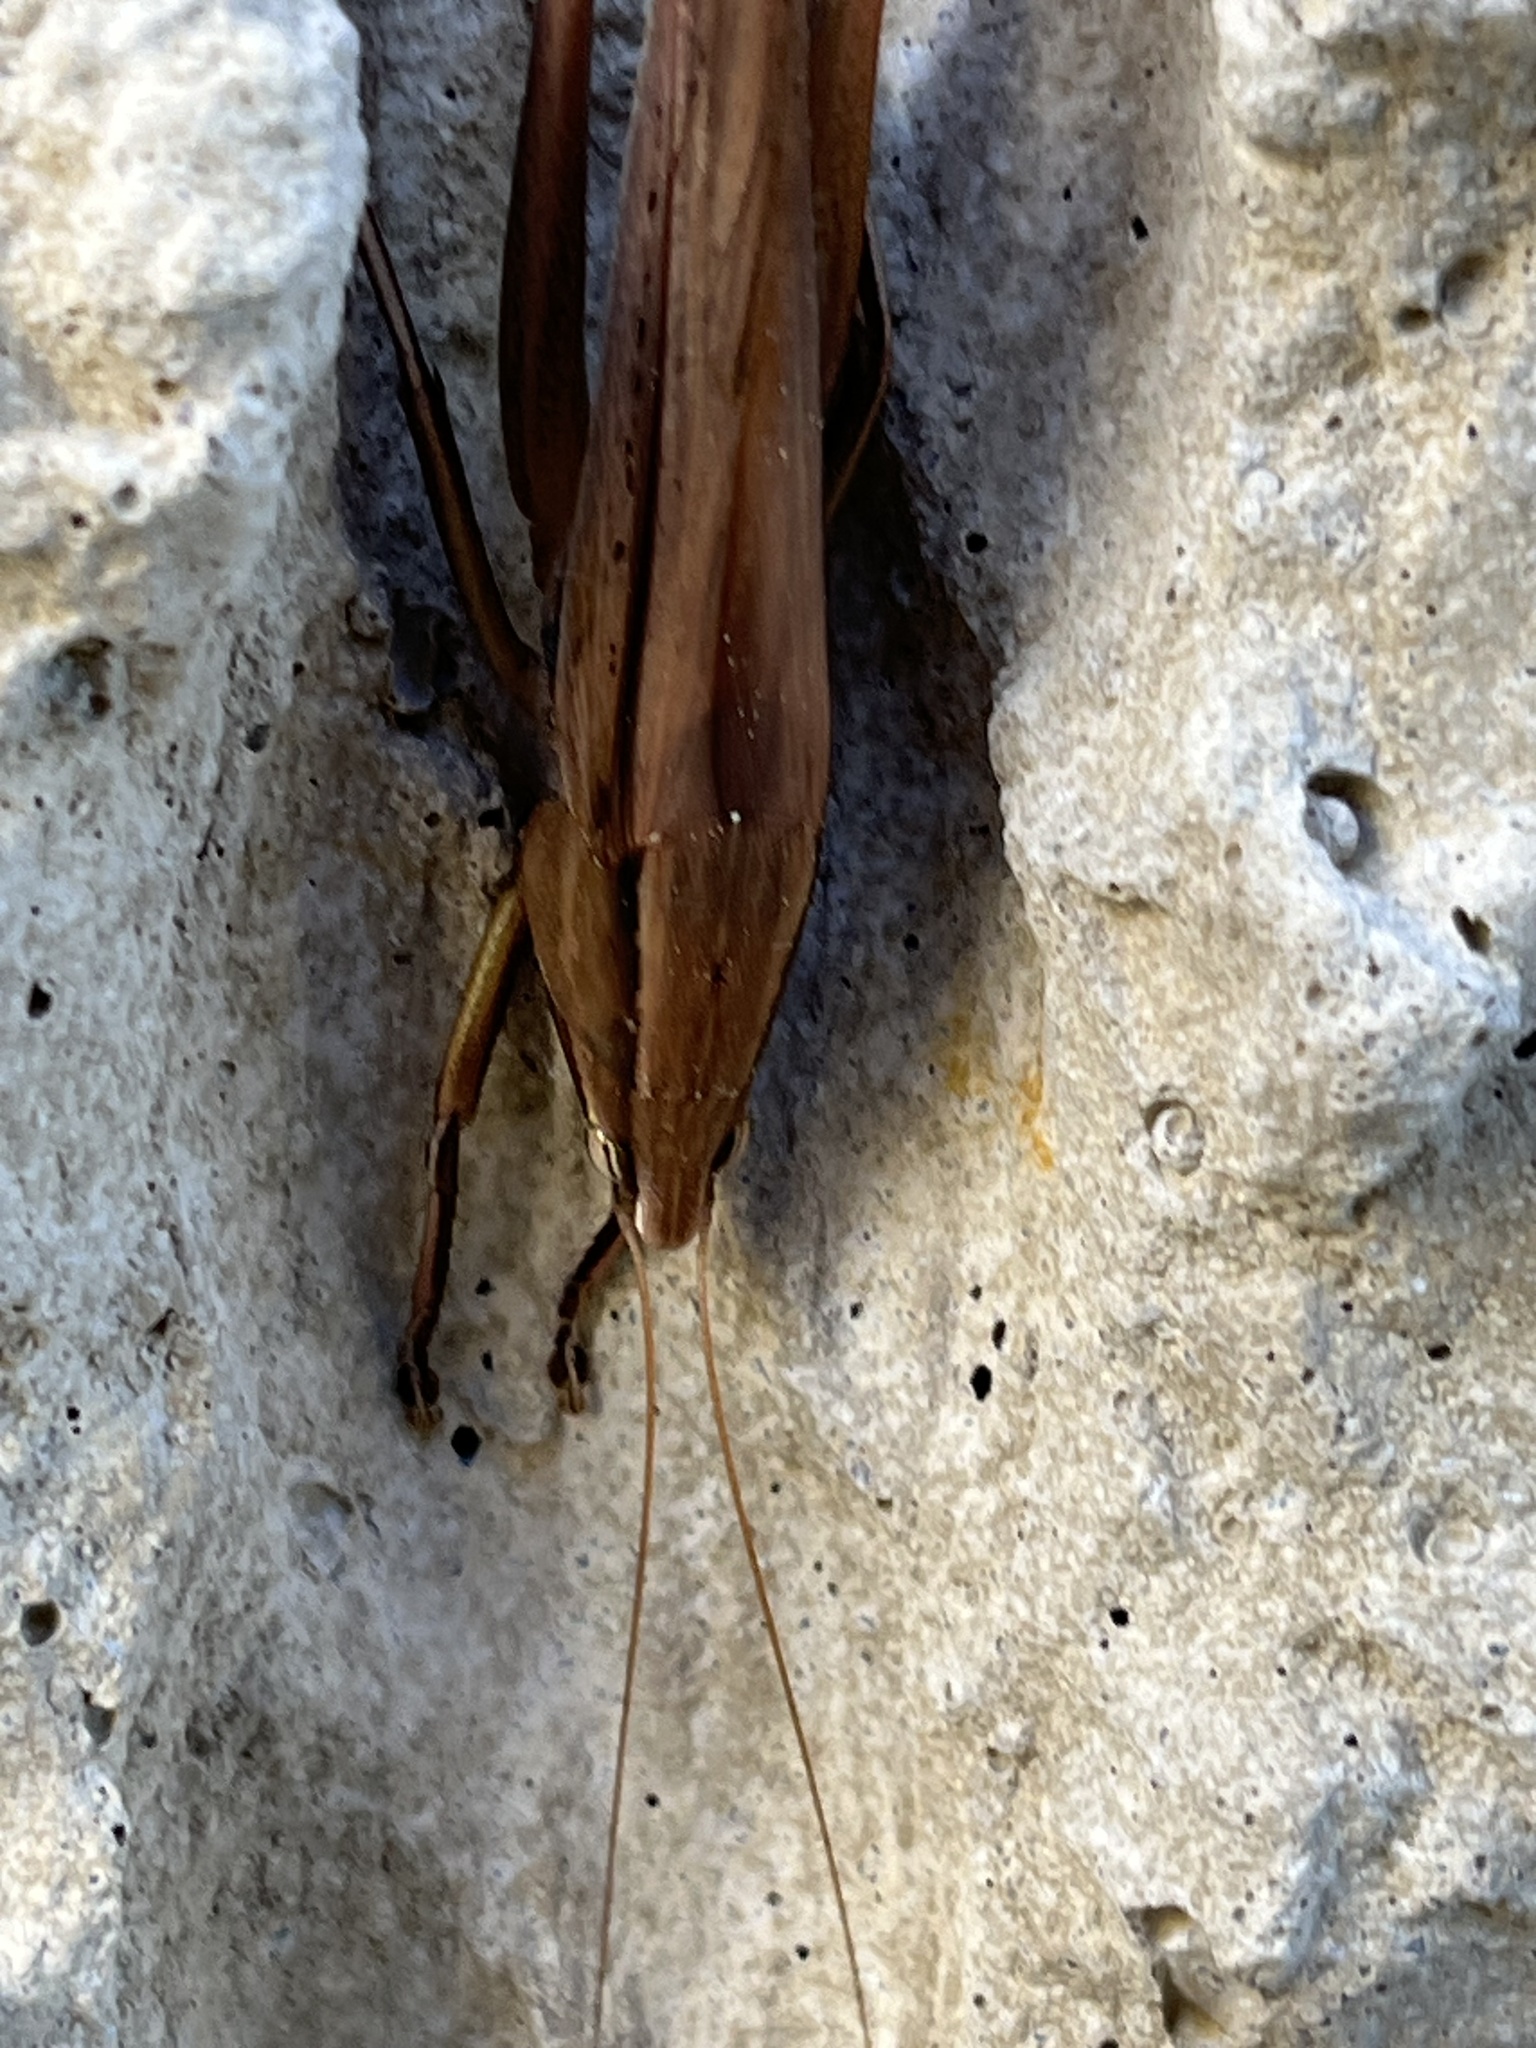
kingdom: Animalia
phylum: Arthropoda
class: Insecta
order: Orthoptera
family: Tettigoniidae
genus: Neoconocephalus
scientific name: Neoconocephalus triops
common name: Broad-tipped conehead
